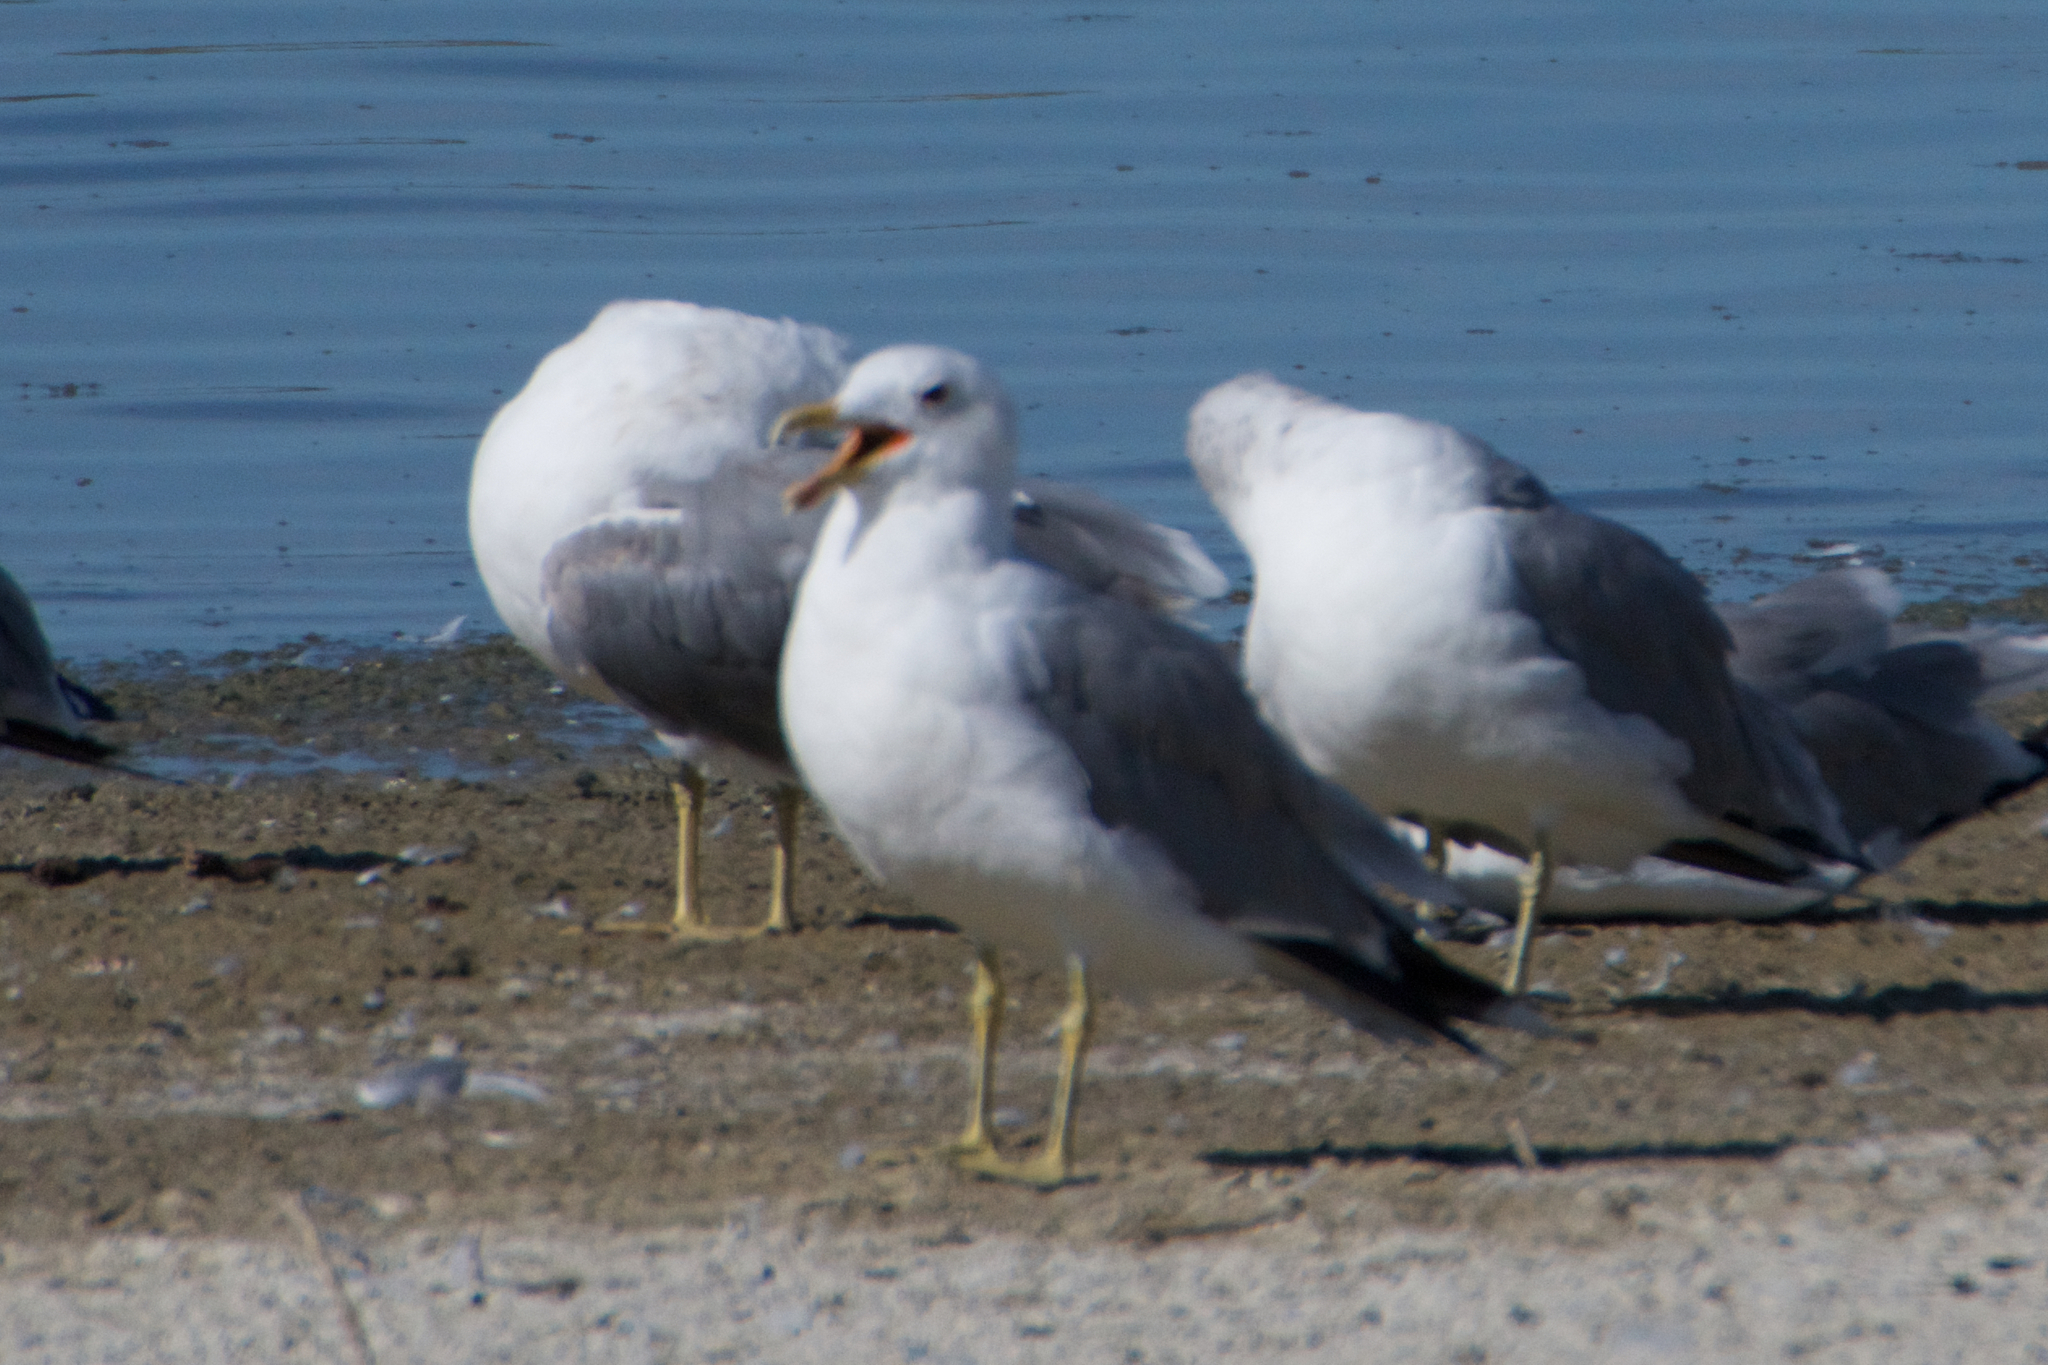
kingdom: Animalia
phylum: Chordata
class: Aves
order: Charadriiformes
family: Laridae
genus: Larus
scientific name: Larus californicus
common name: California gull
